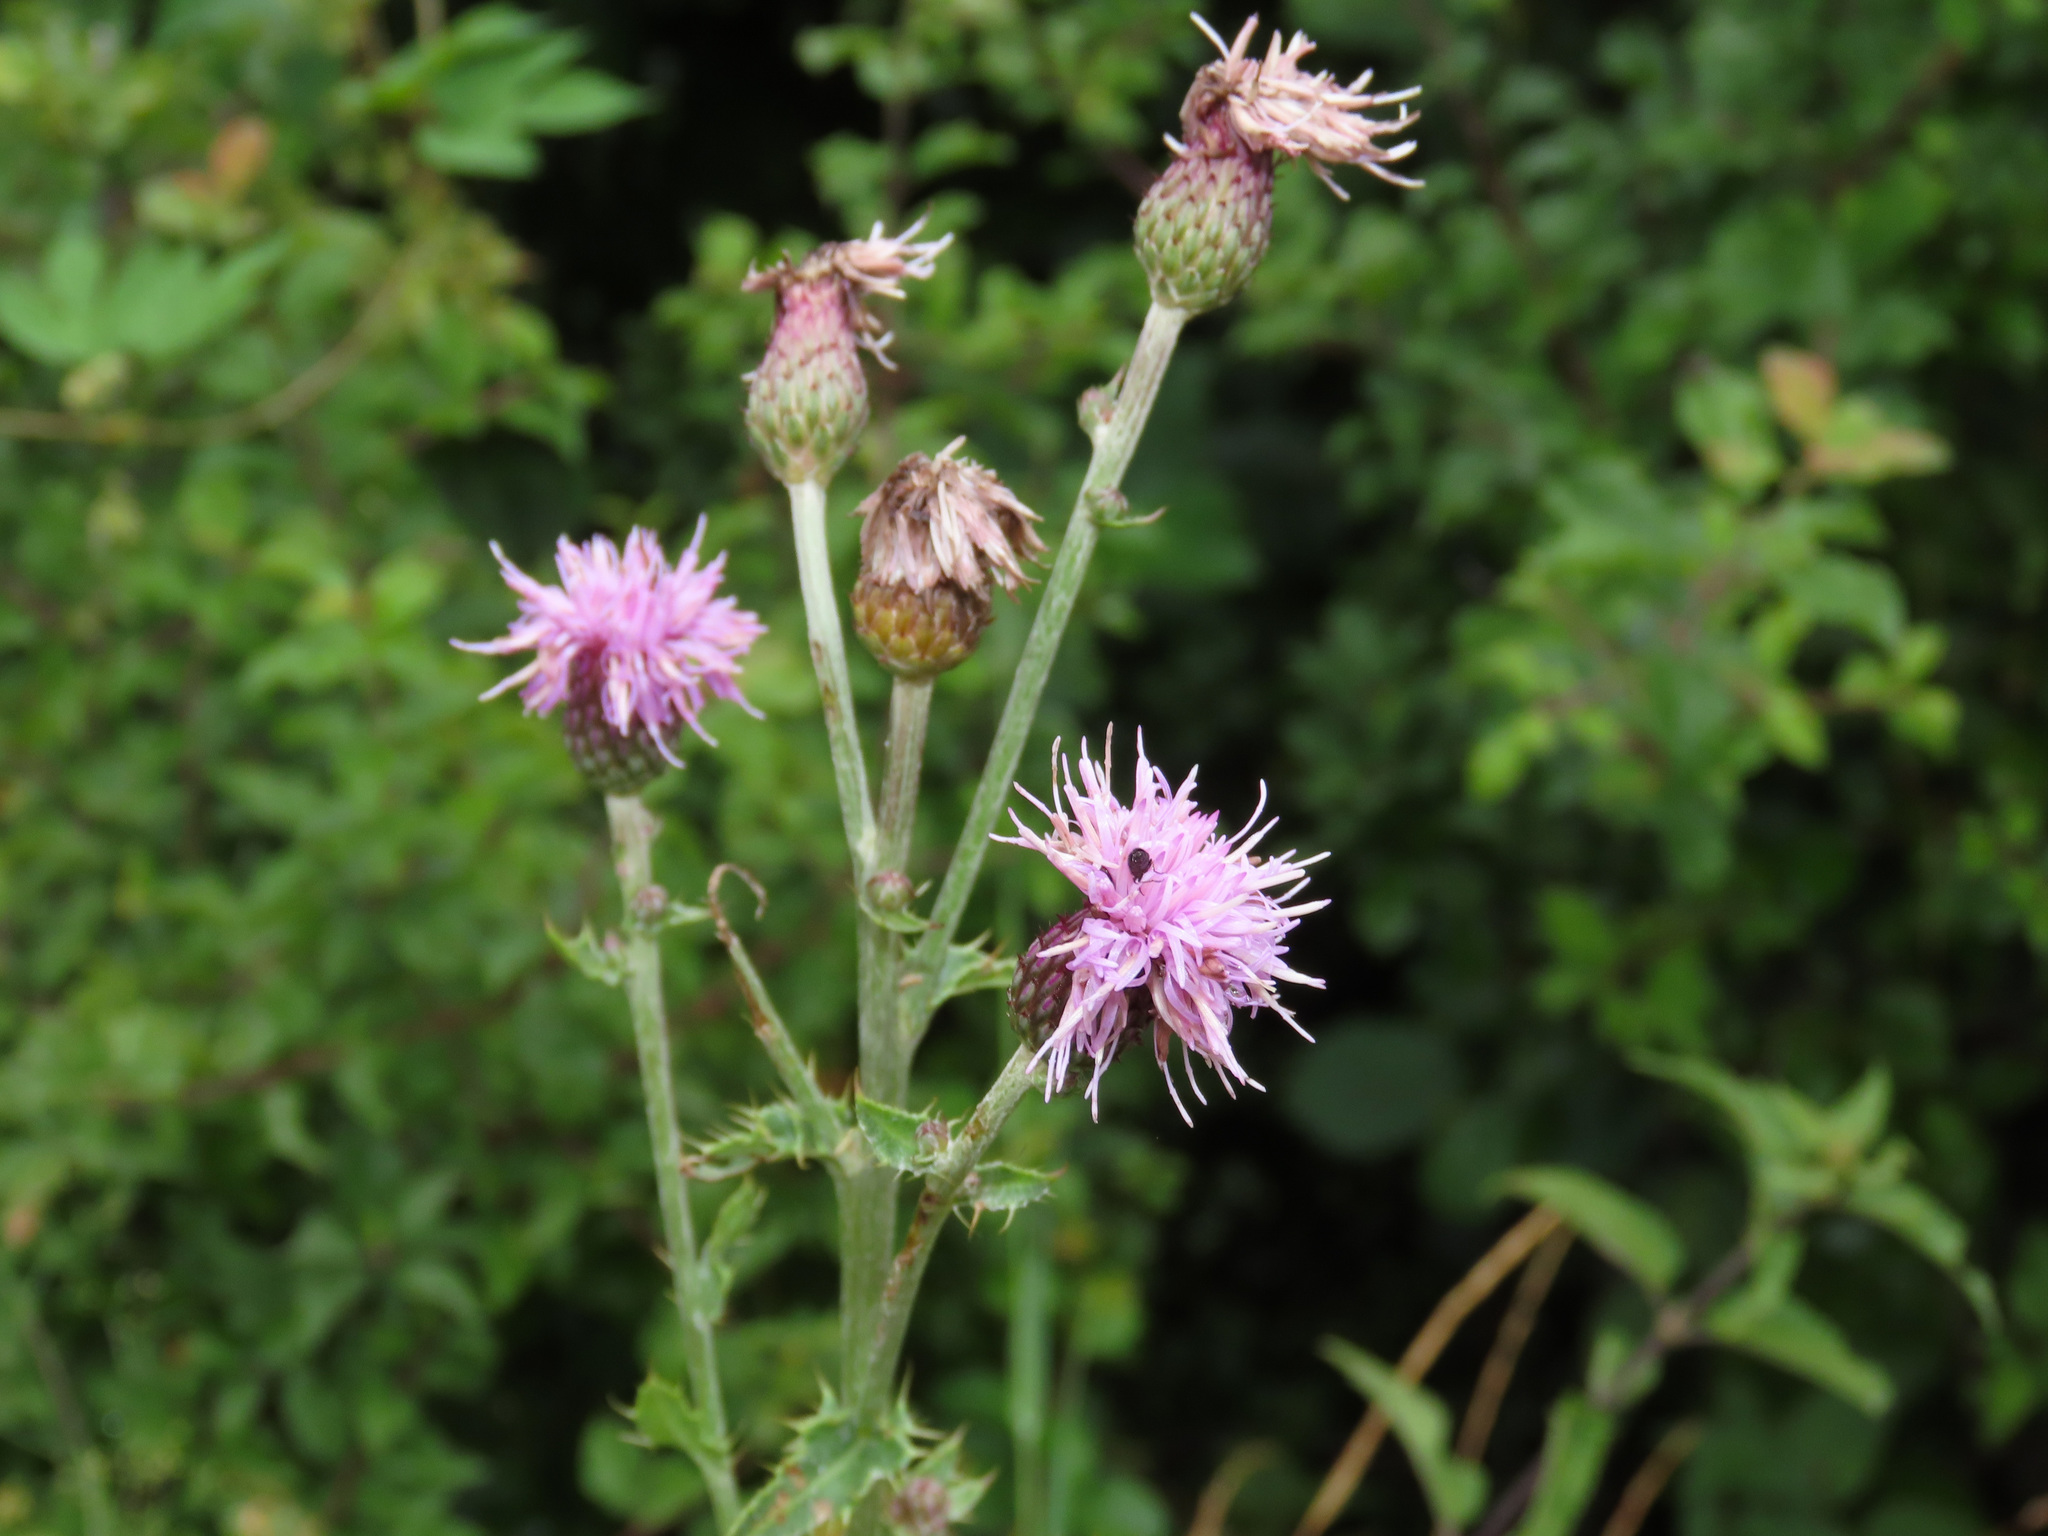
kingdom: Plantae
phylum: Tracheophyta
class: Magnoliopsida
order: Asterales
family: Asteraceae
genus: Cirsium
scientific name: Cirsium arvense
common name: Creeping thistle
